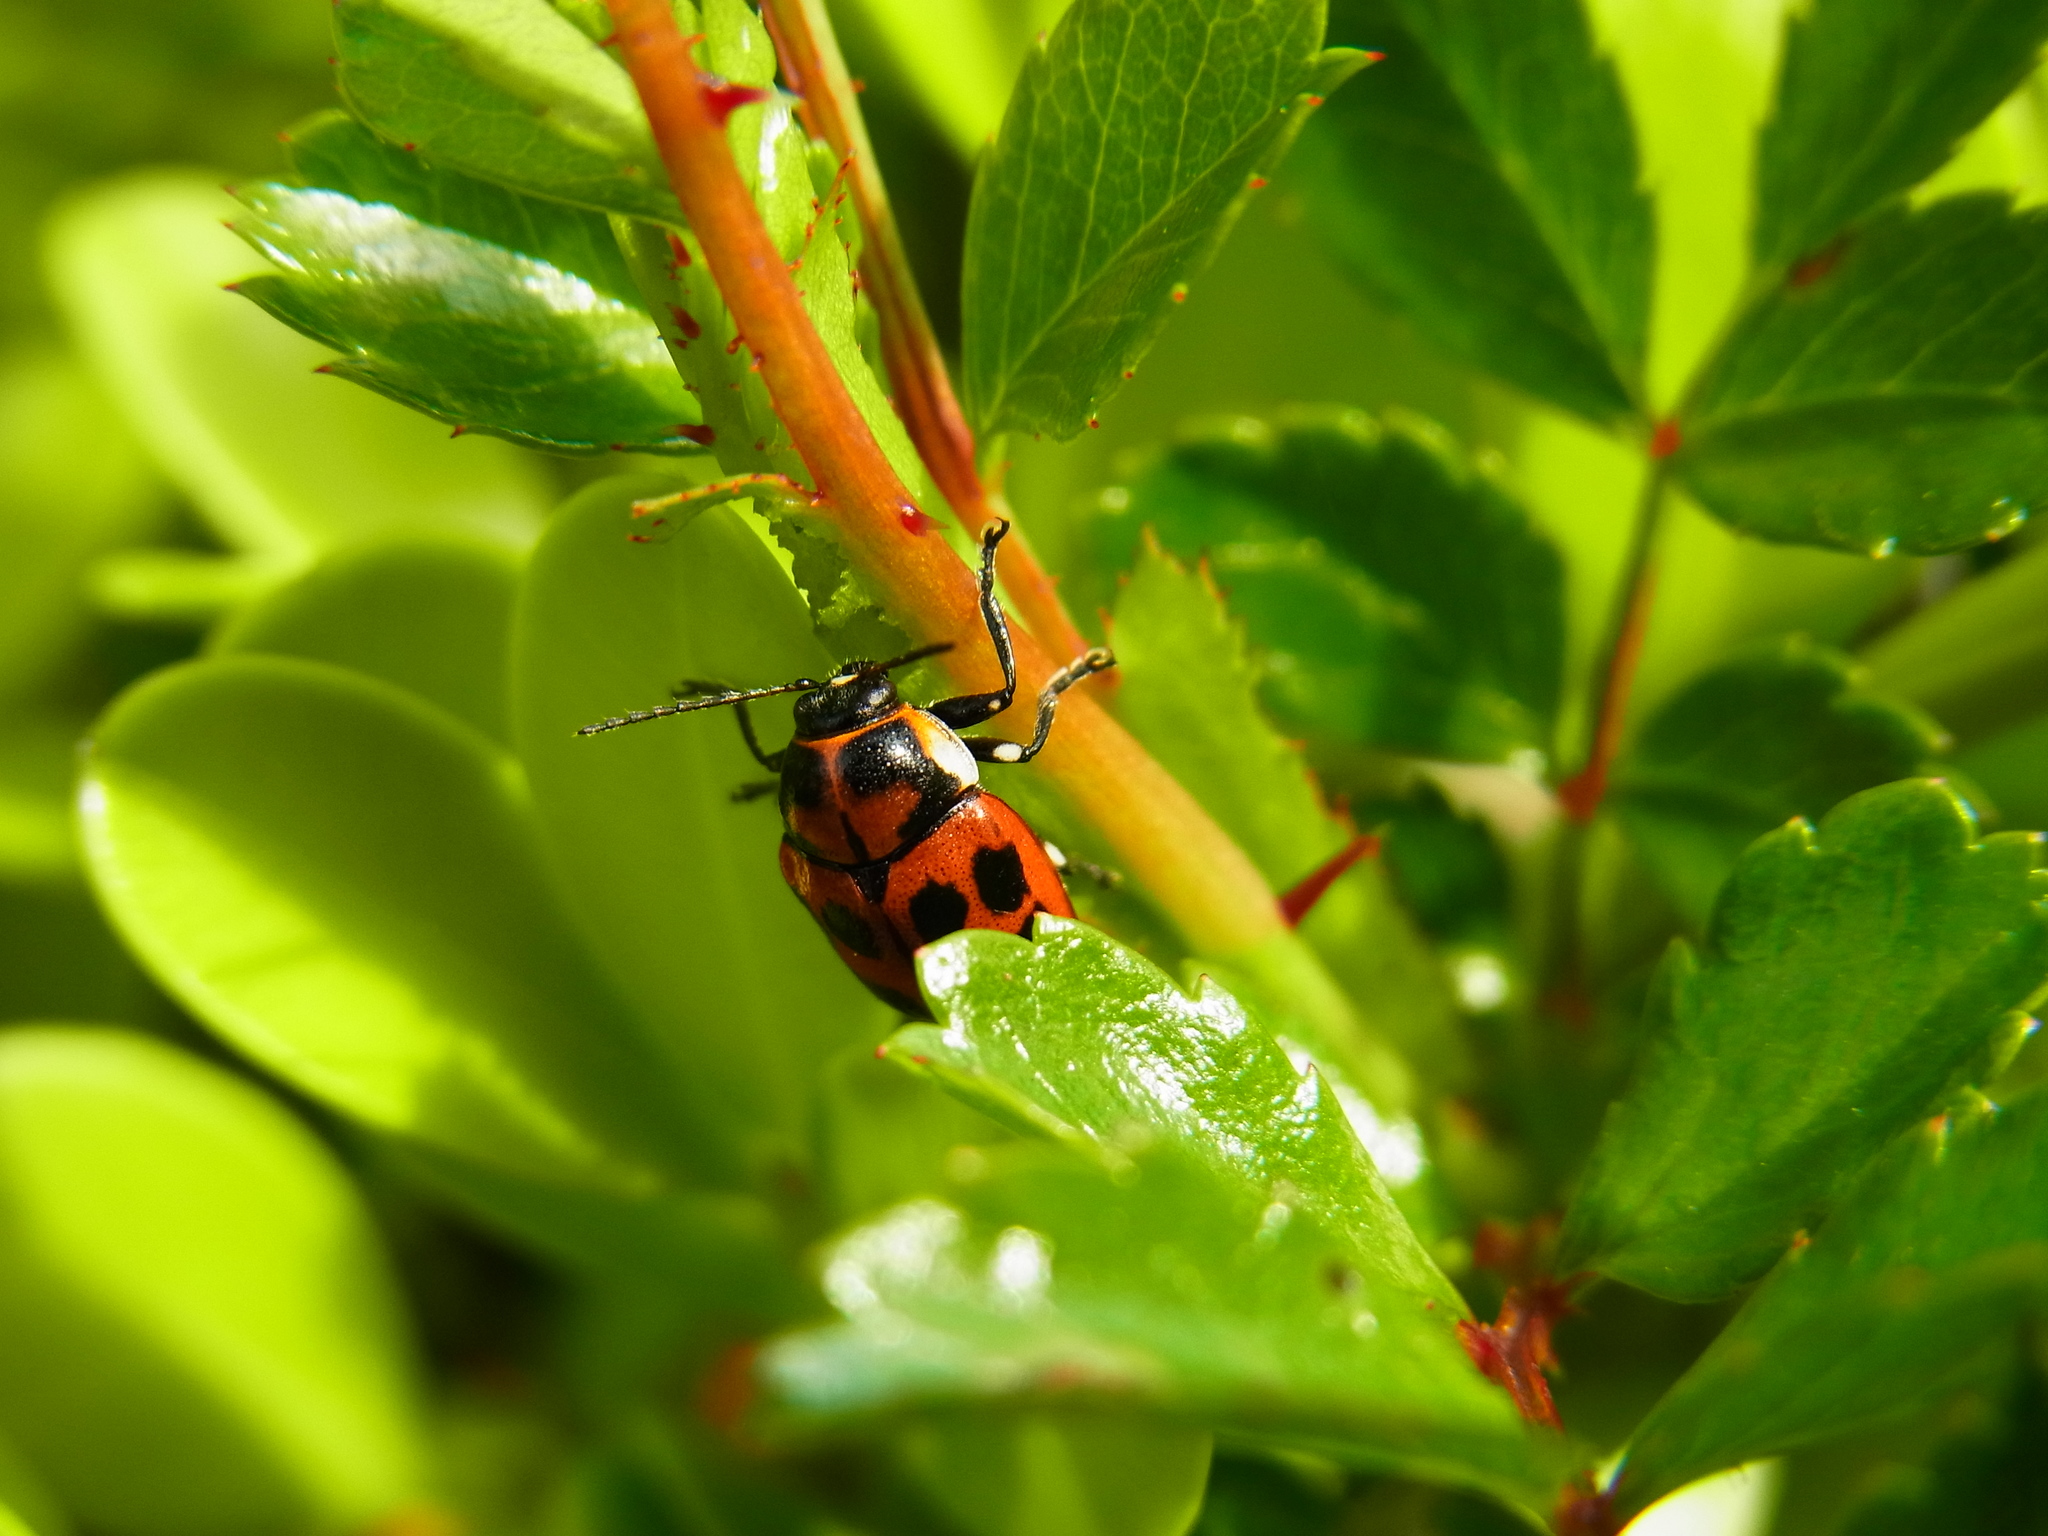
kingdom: Animalia
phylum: Arthropoda
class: Insecta
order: Coleoptera
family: Chrysomelidae
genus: Cryptocephalus
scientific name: Cryptocephalus
